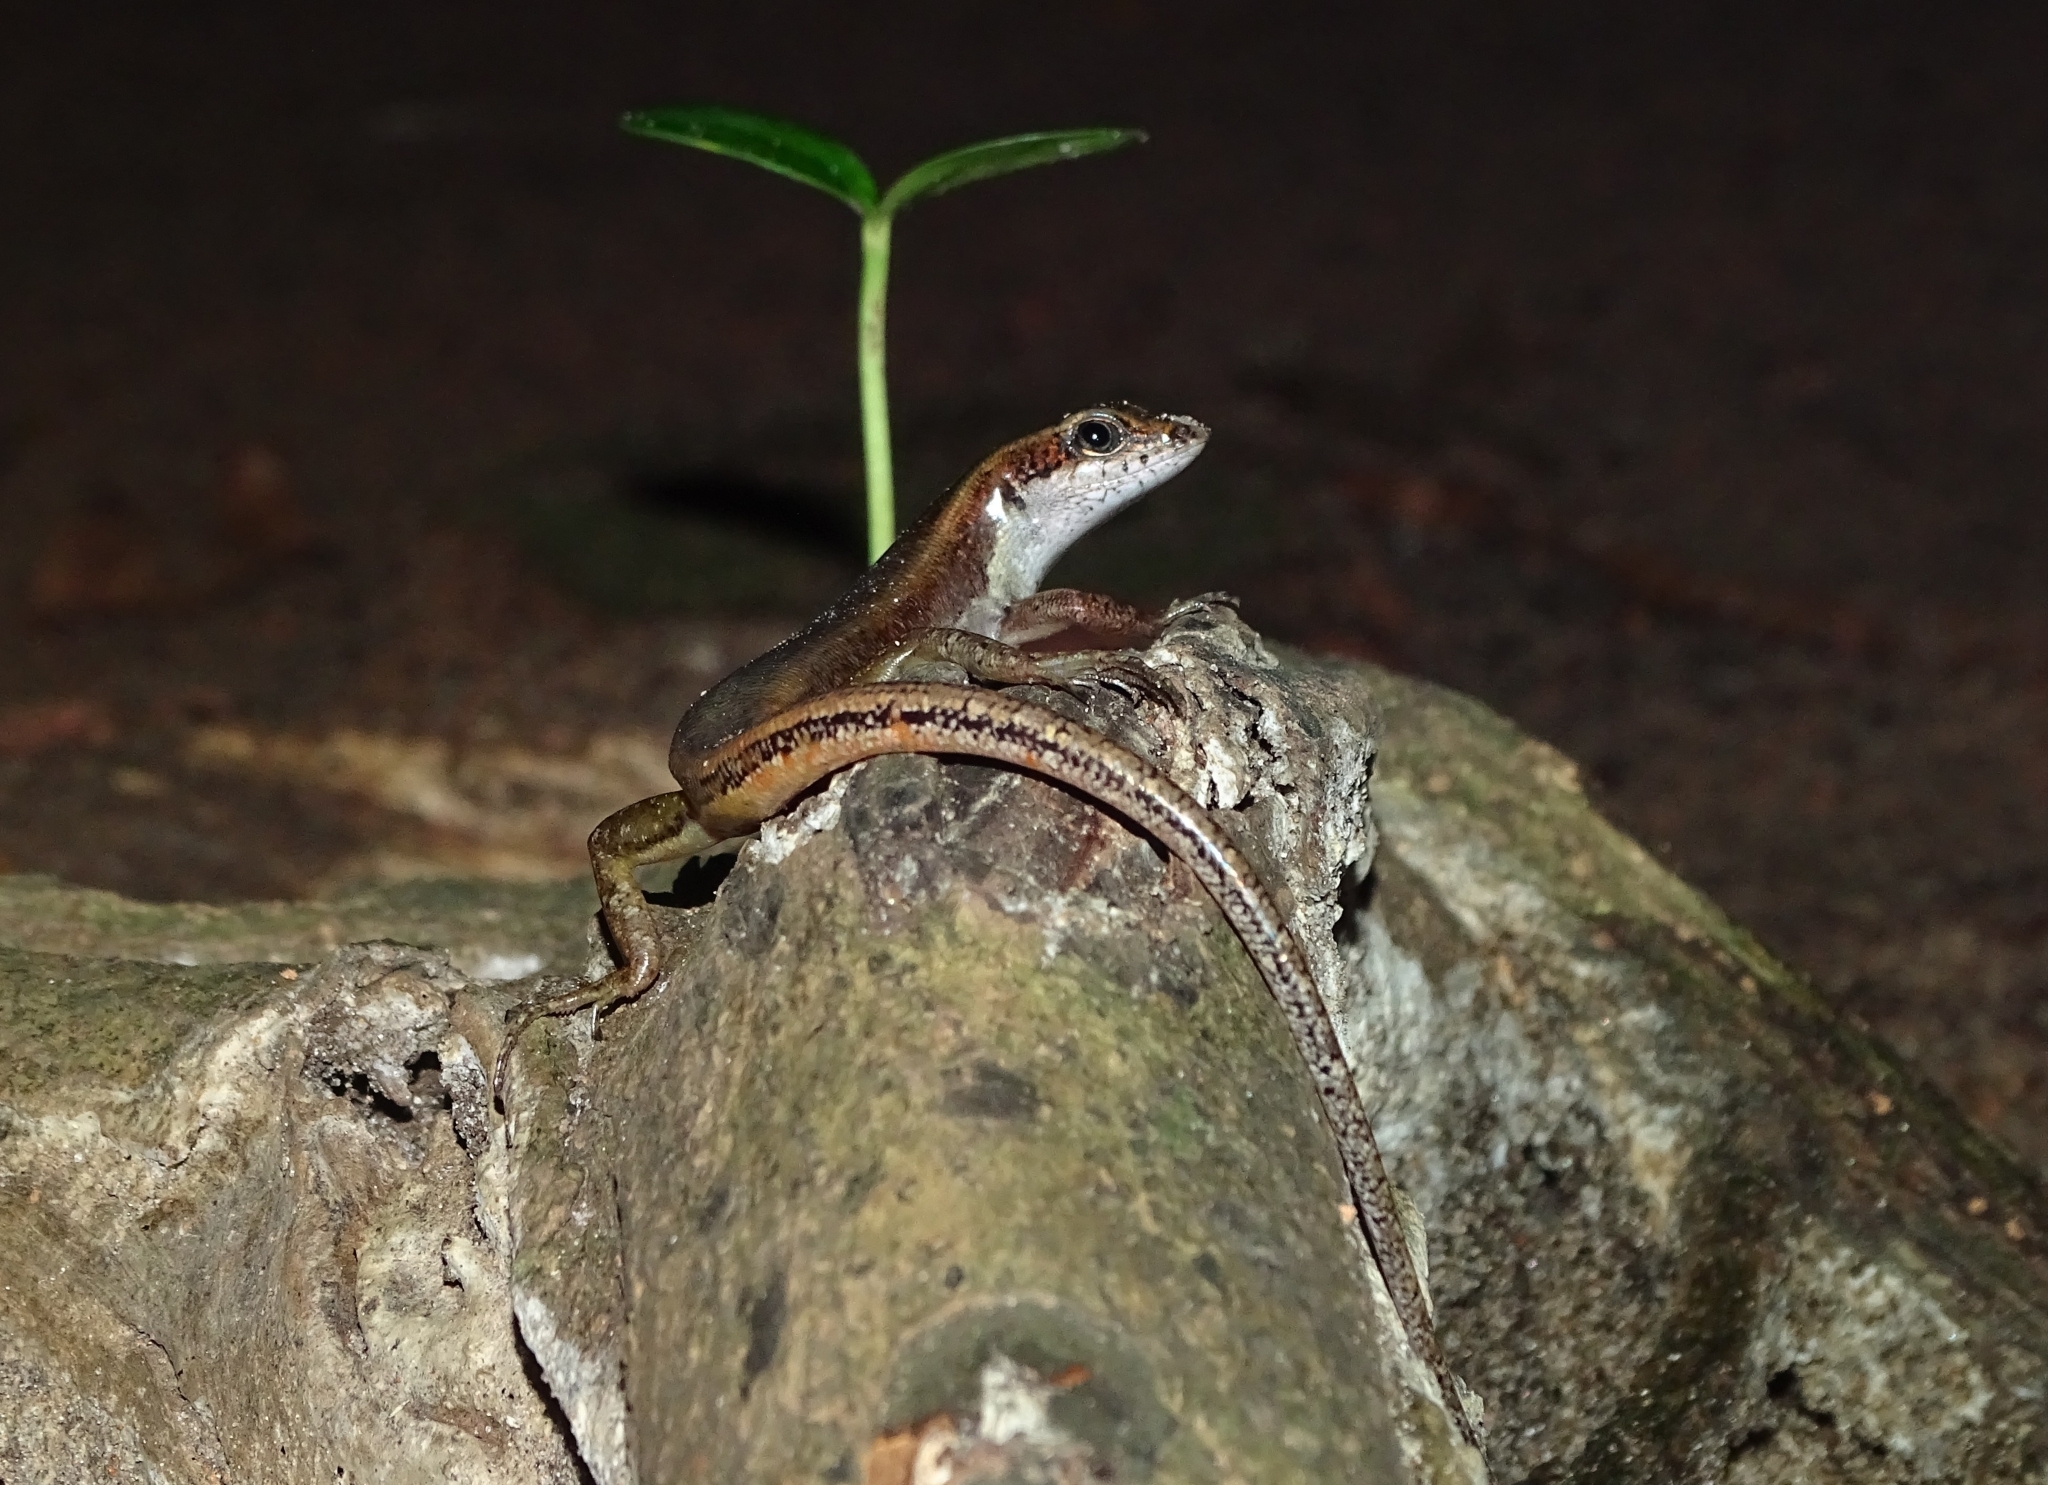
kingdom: Animalia
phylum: Chordata
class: Squamata
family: Scincidae
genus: Sphenomorphus
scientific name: Sphenomorphus dussumieri
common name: Dussumier's forest skink
